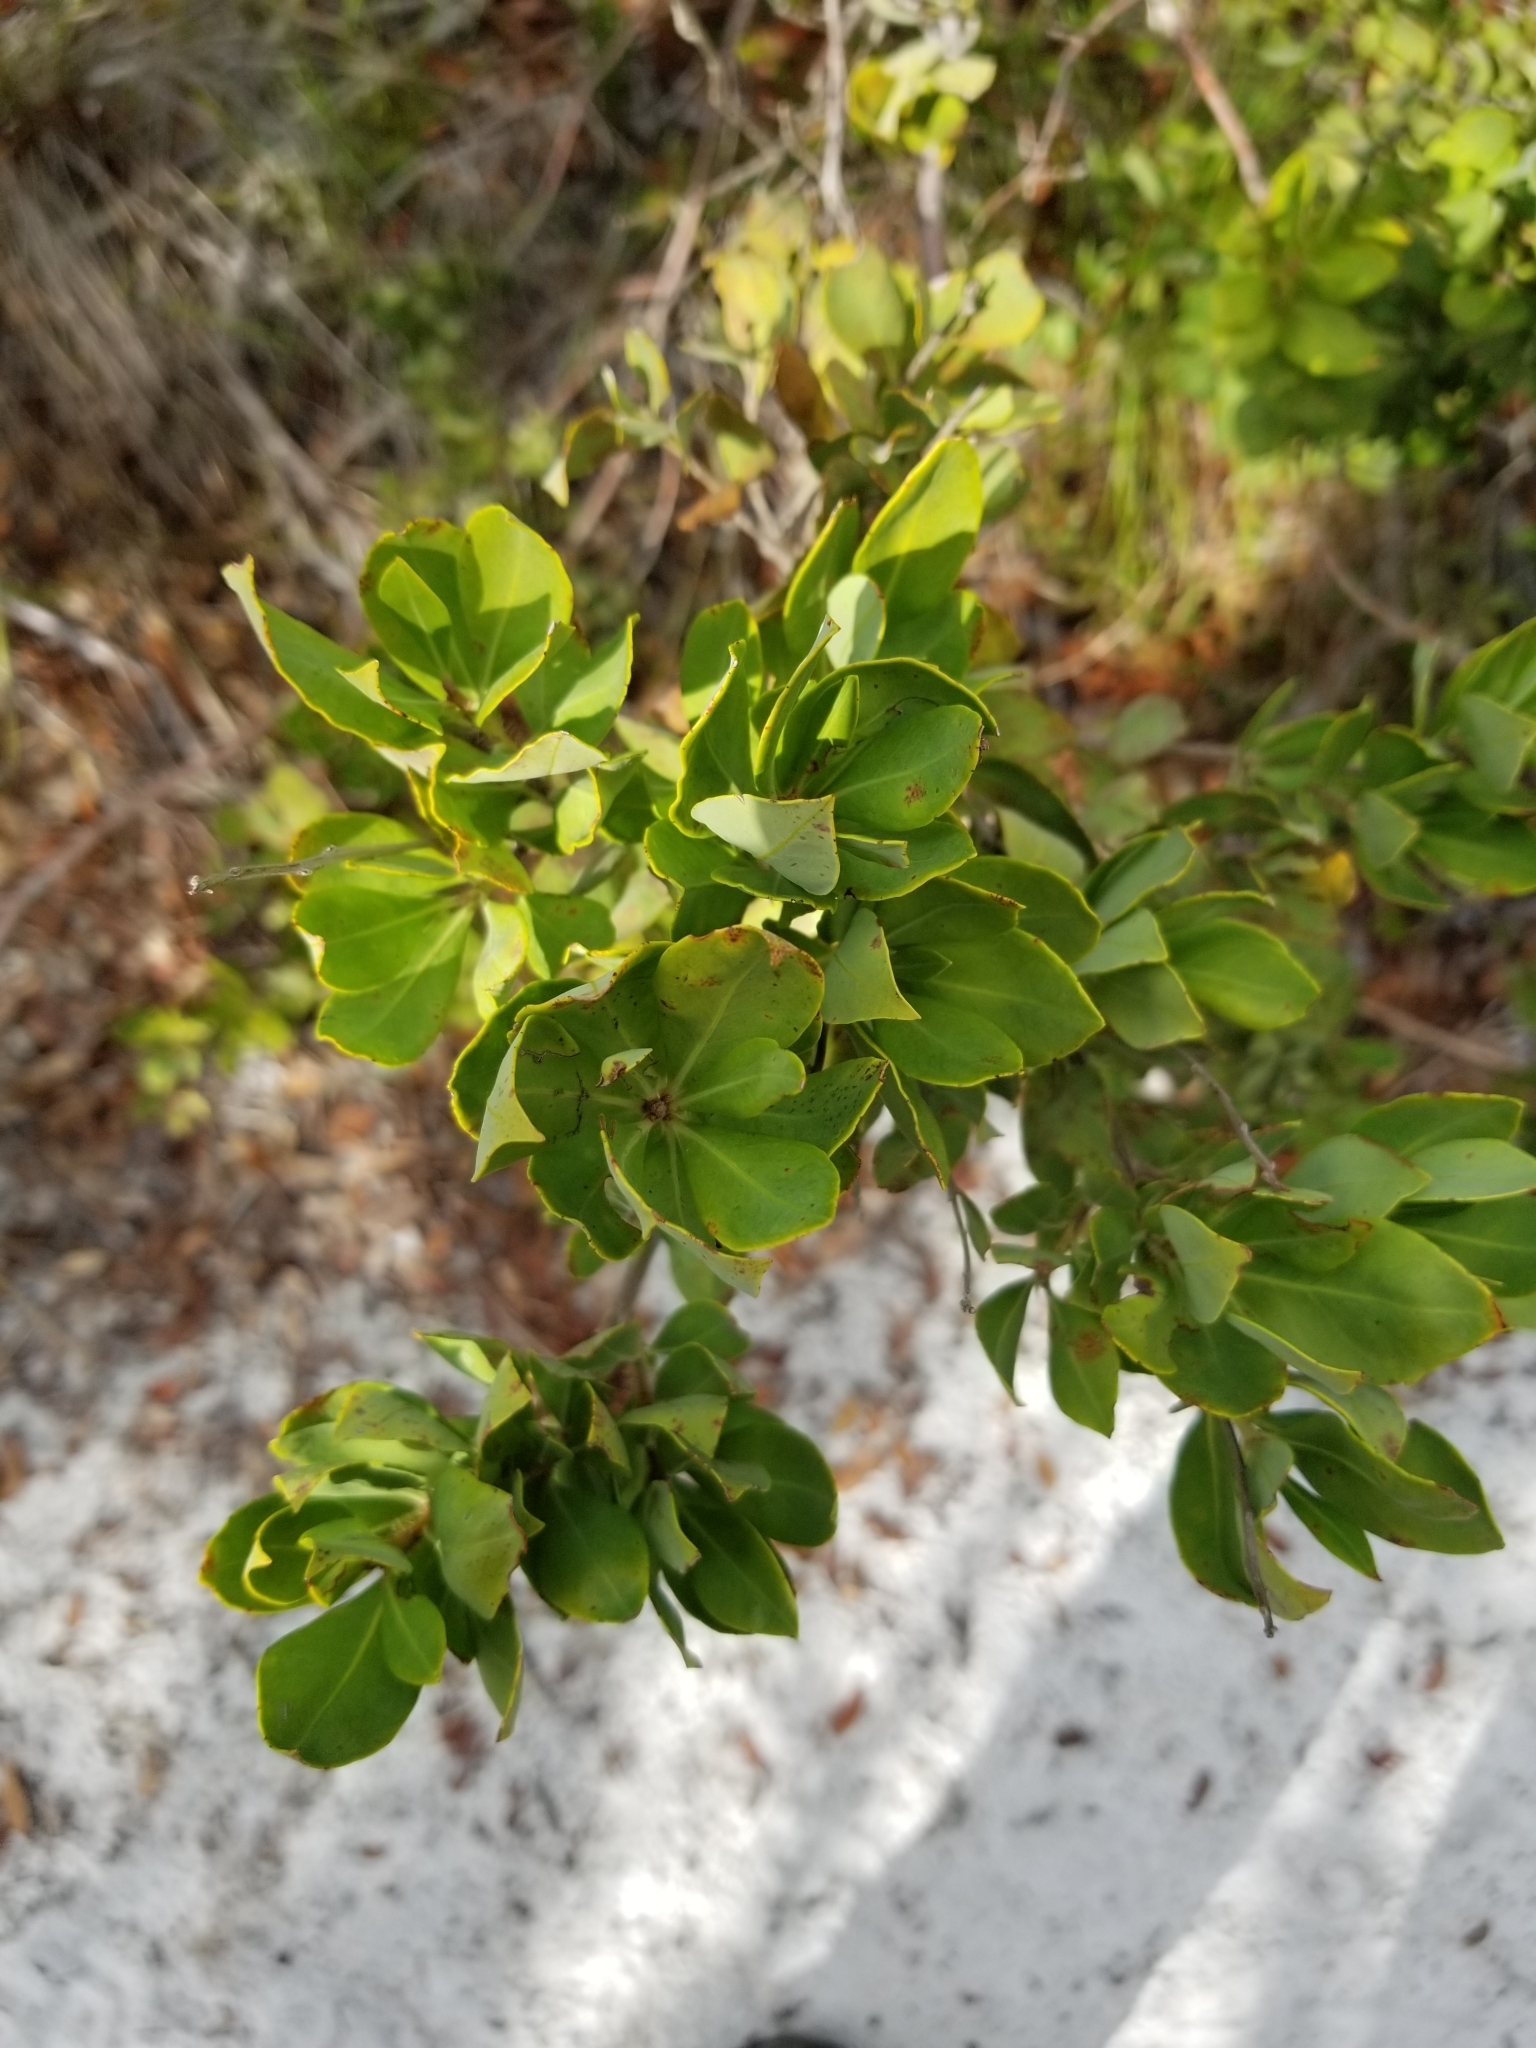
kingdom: Plantae
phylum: Tracheophyta
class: Magnoliopsida
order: Ericales
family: Ericaceae
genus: Bejaria
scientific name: Bejaria racemosa
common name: Tarflower
